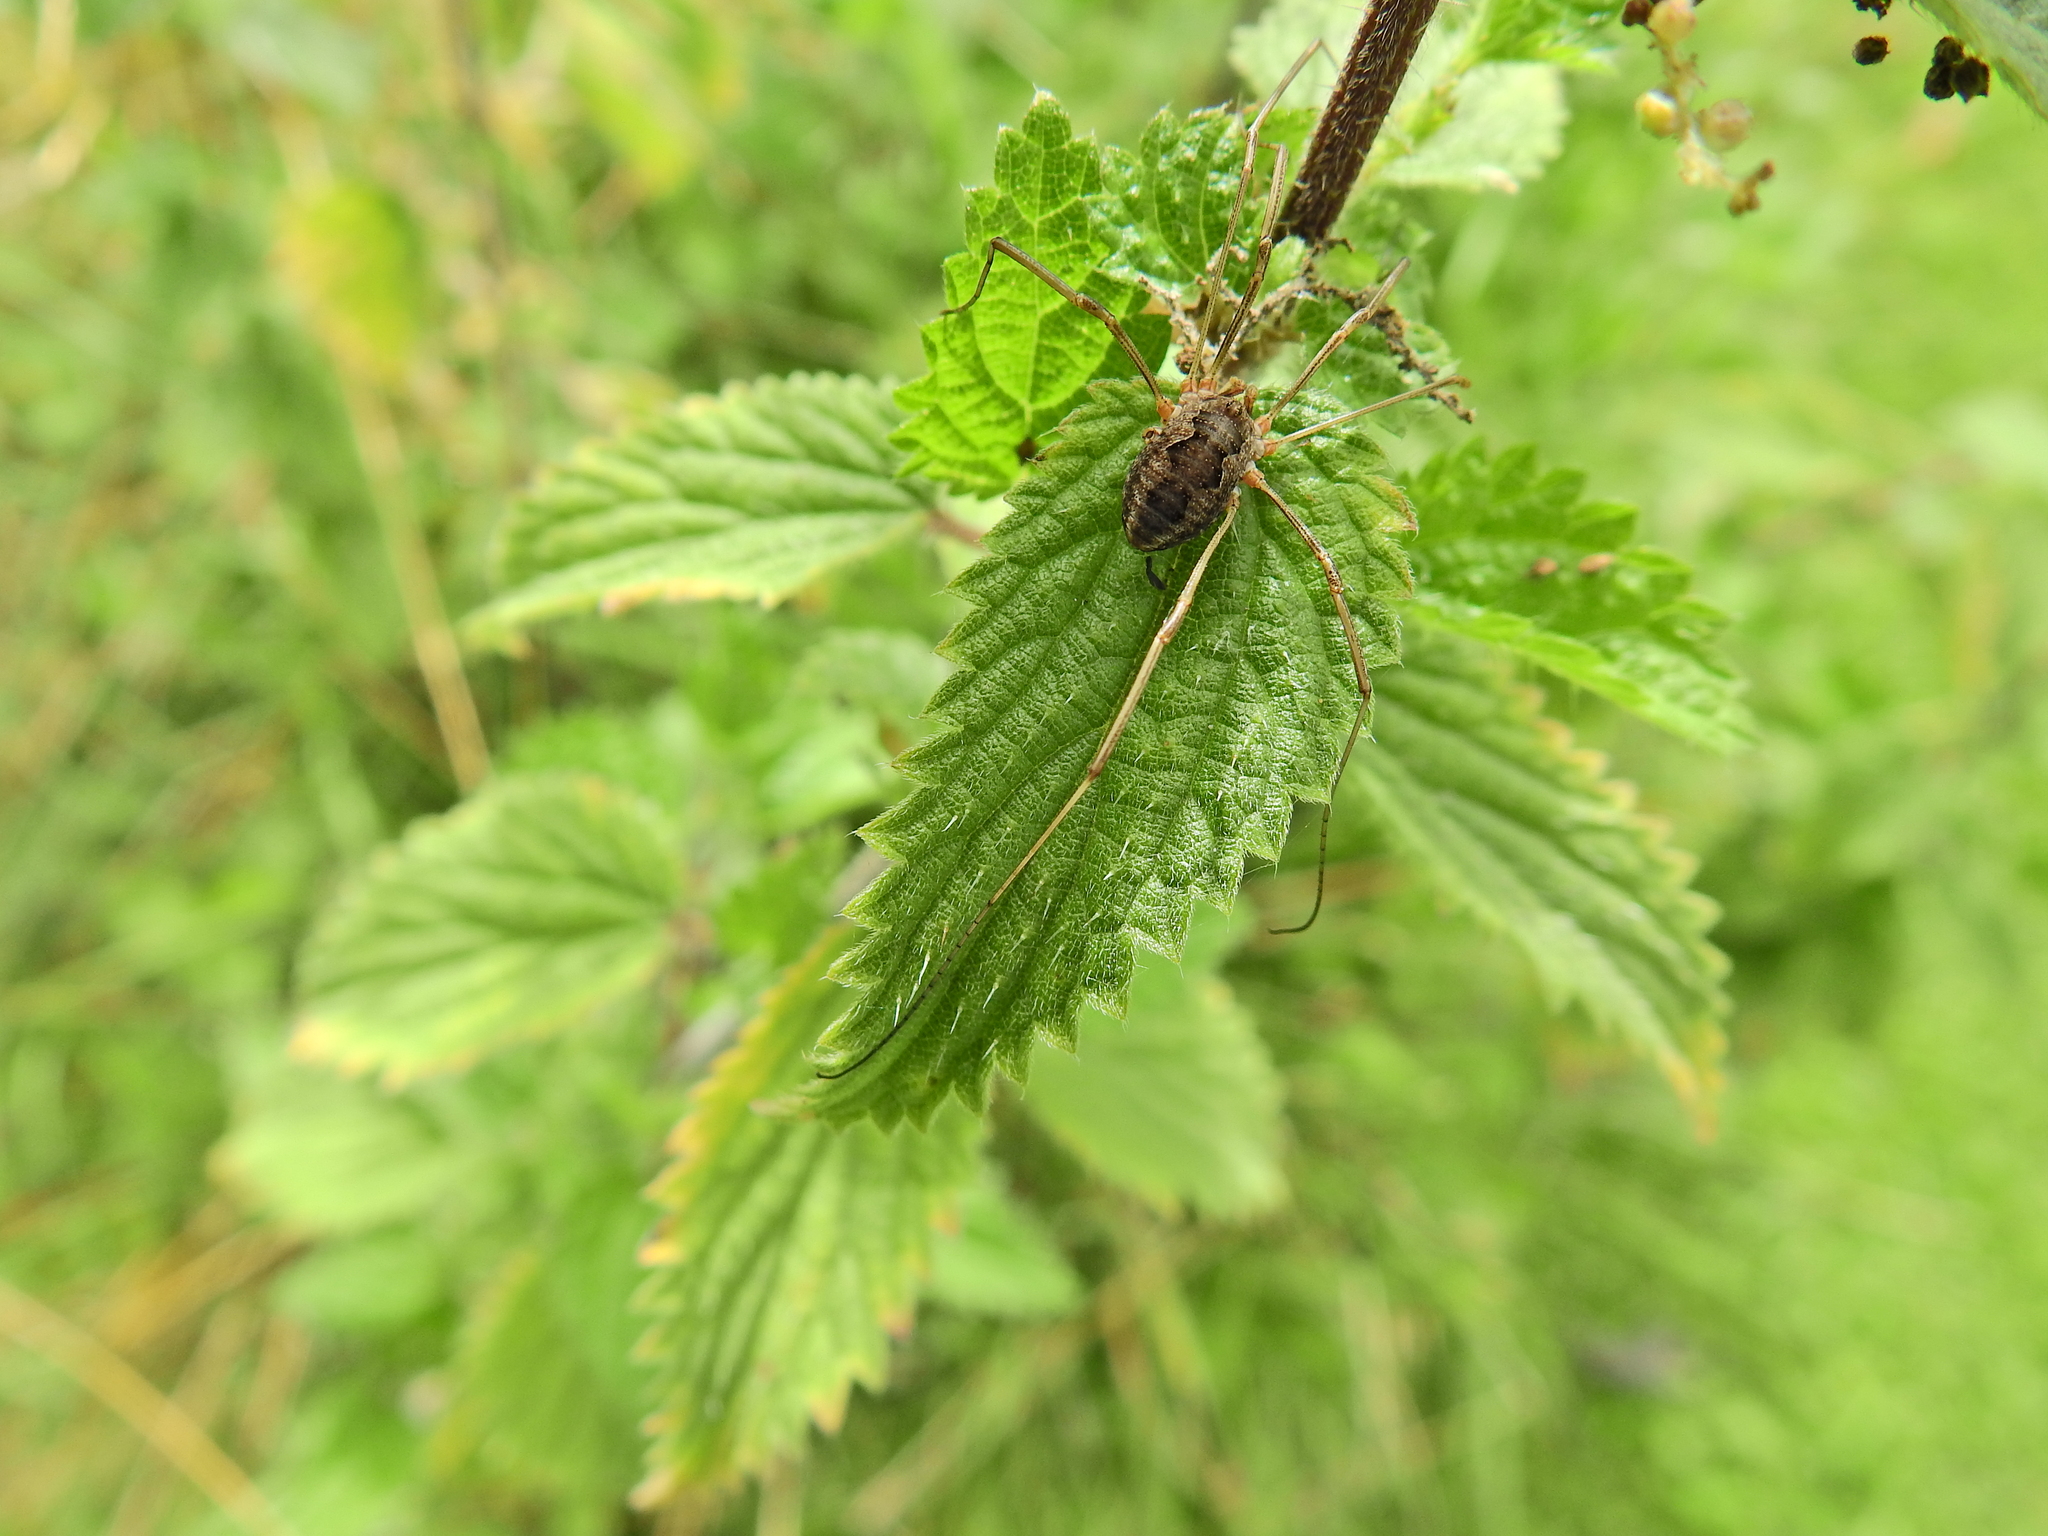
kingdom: Animalia
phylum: Arthropoda
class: Arachnida
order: Opiliones
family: Phalangiidae
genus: Phalangium
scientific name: Phalangium opilio
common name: Daddy longleg
